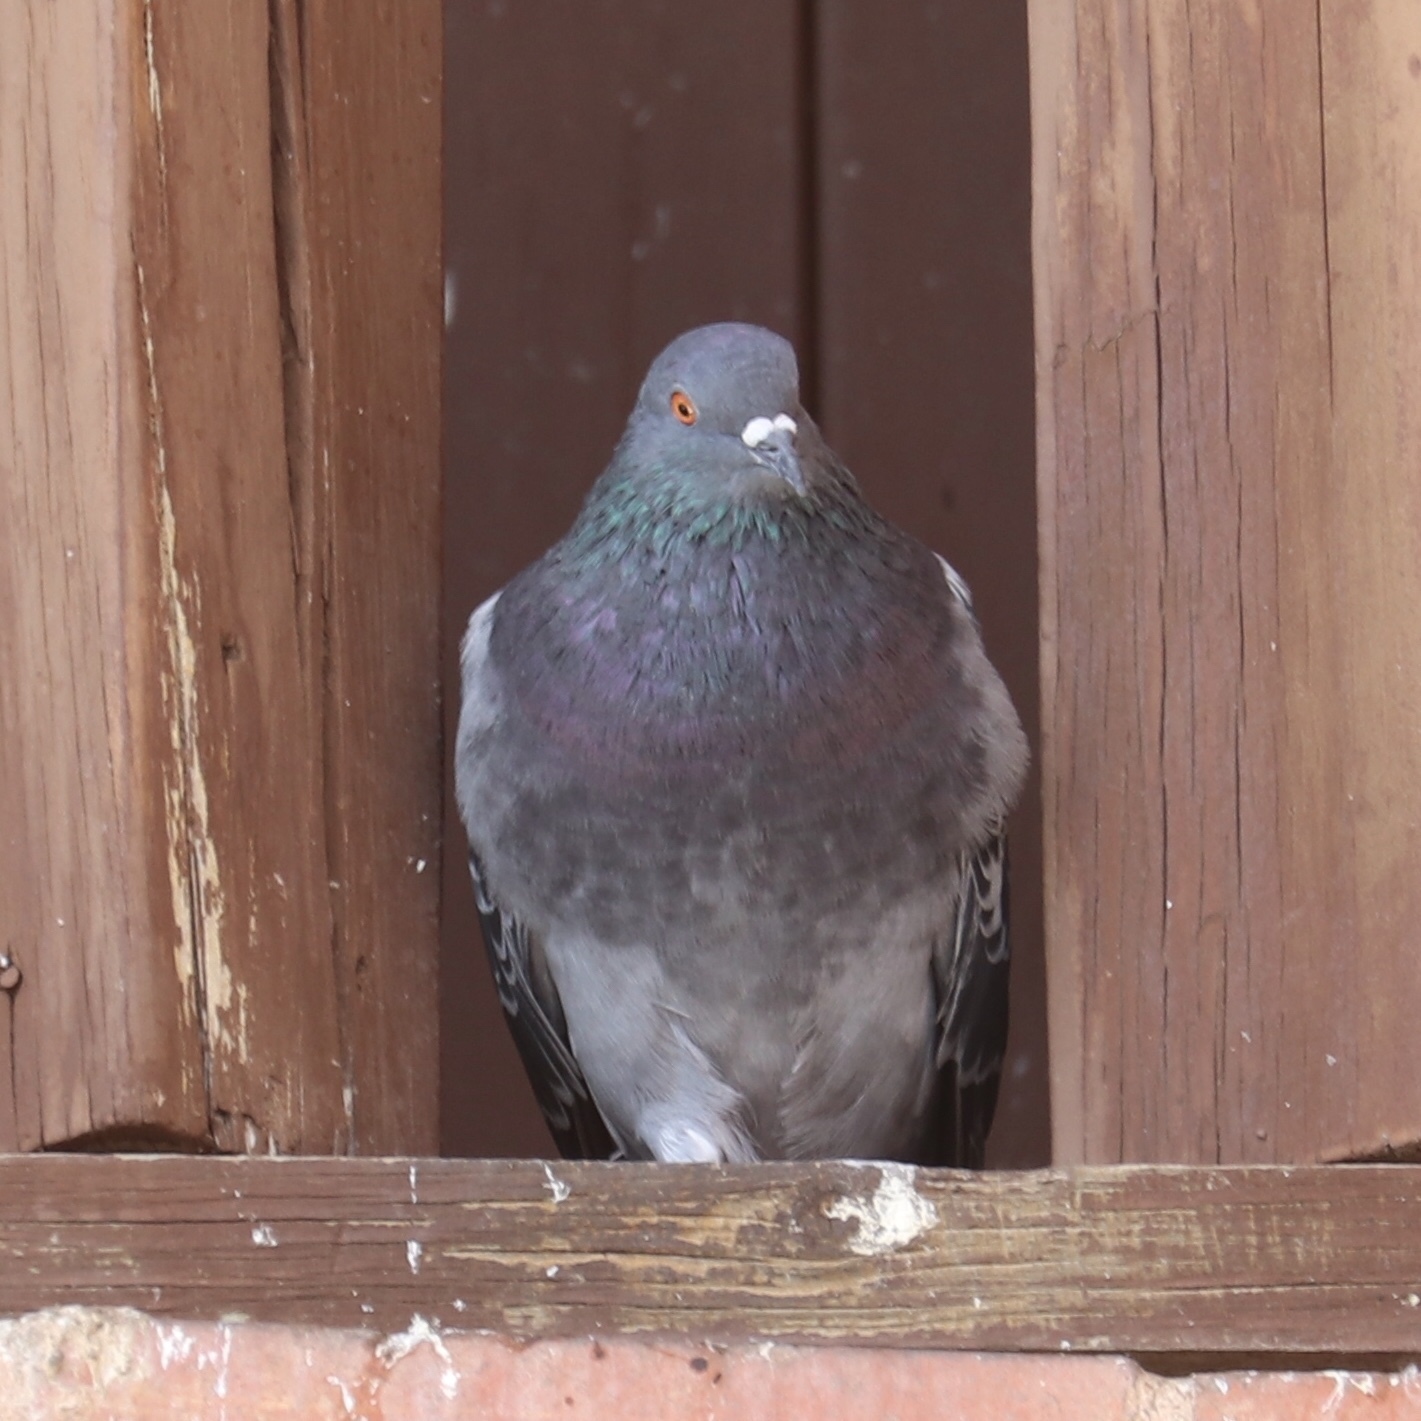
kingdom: Animalia
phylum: Chordata
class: Aves
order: Columbiformes
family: Columbidae
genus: Columba
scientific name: Columba livia
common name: Rock pigeon
